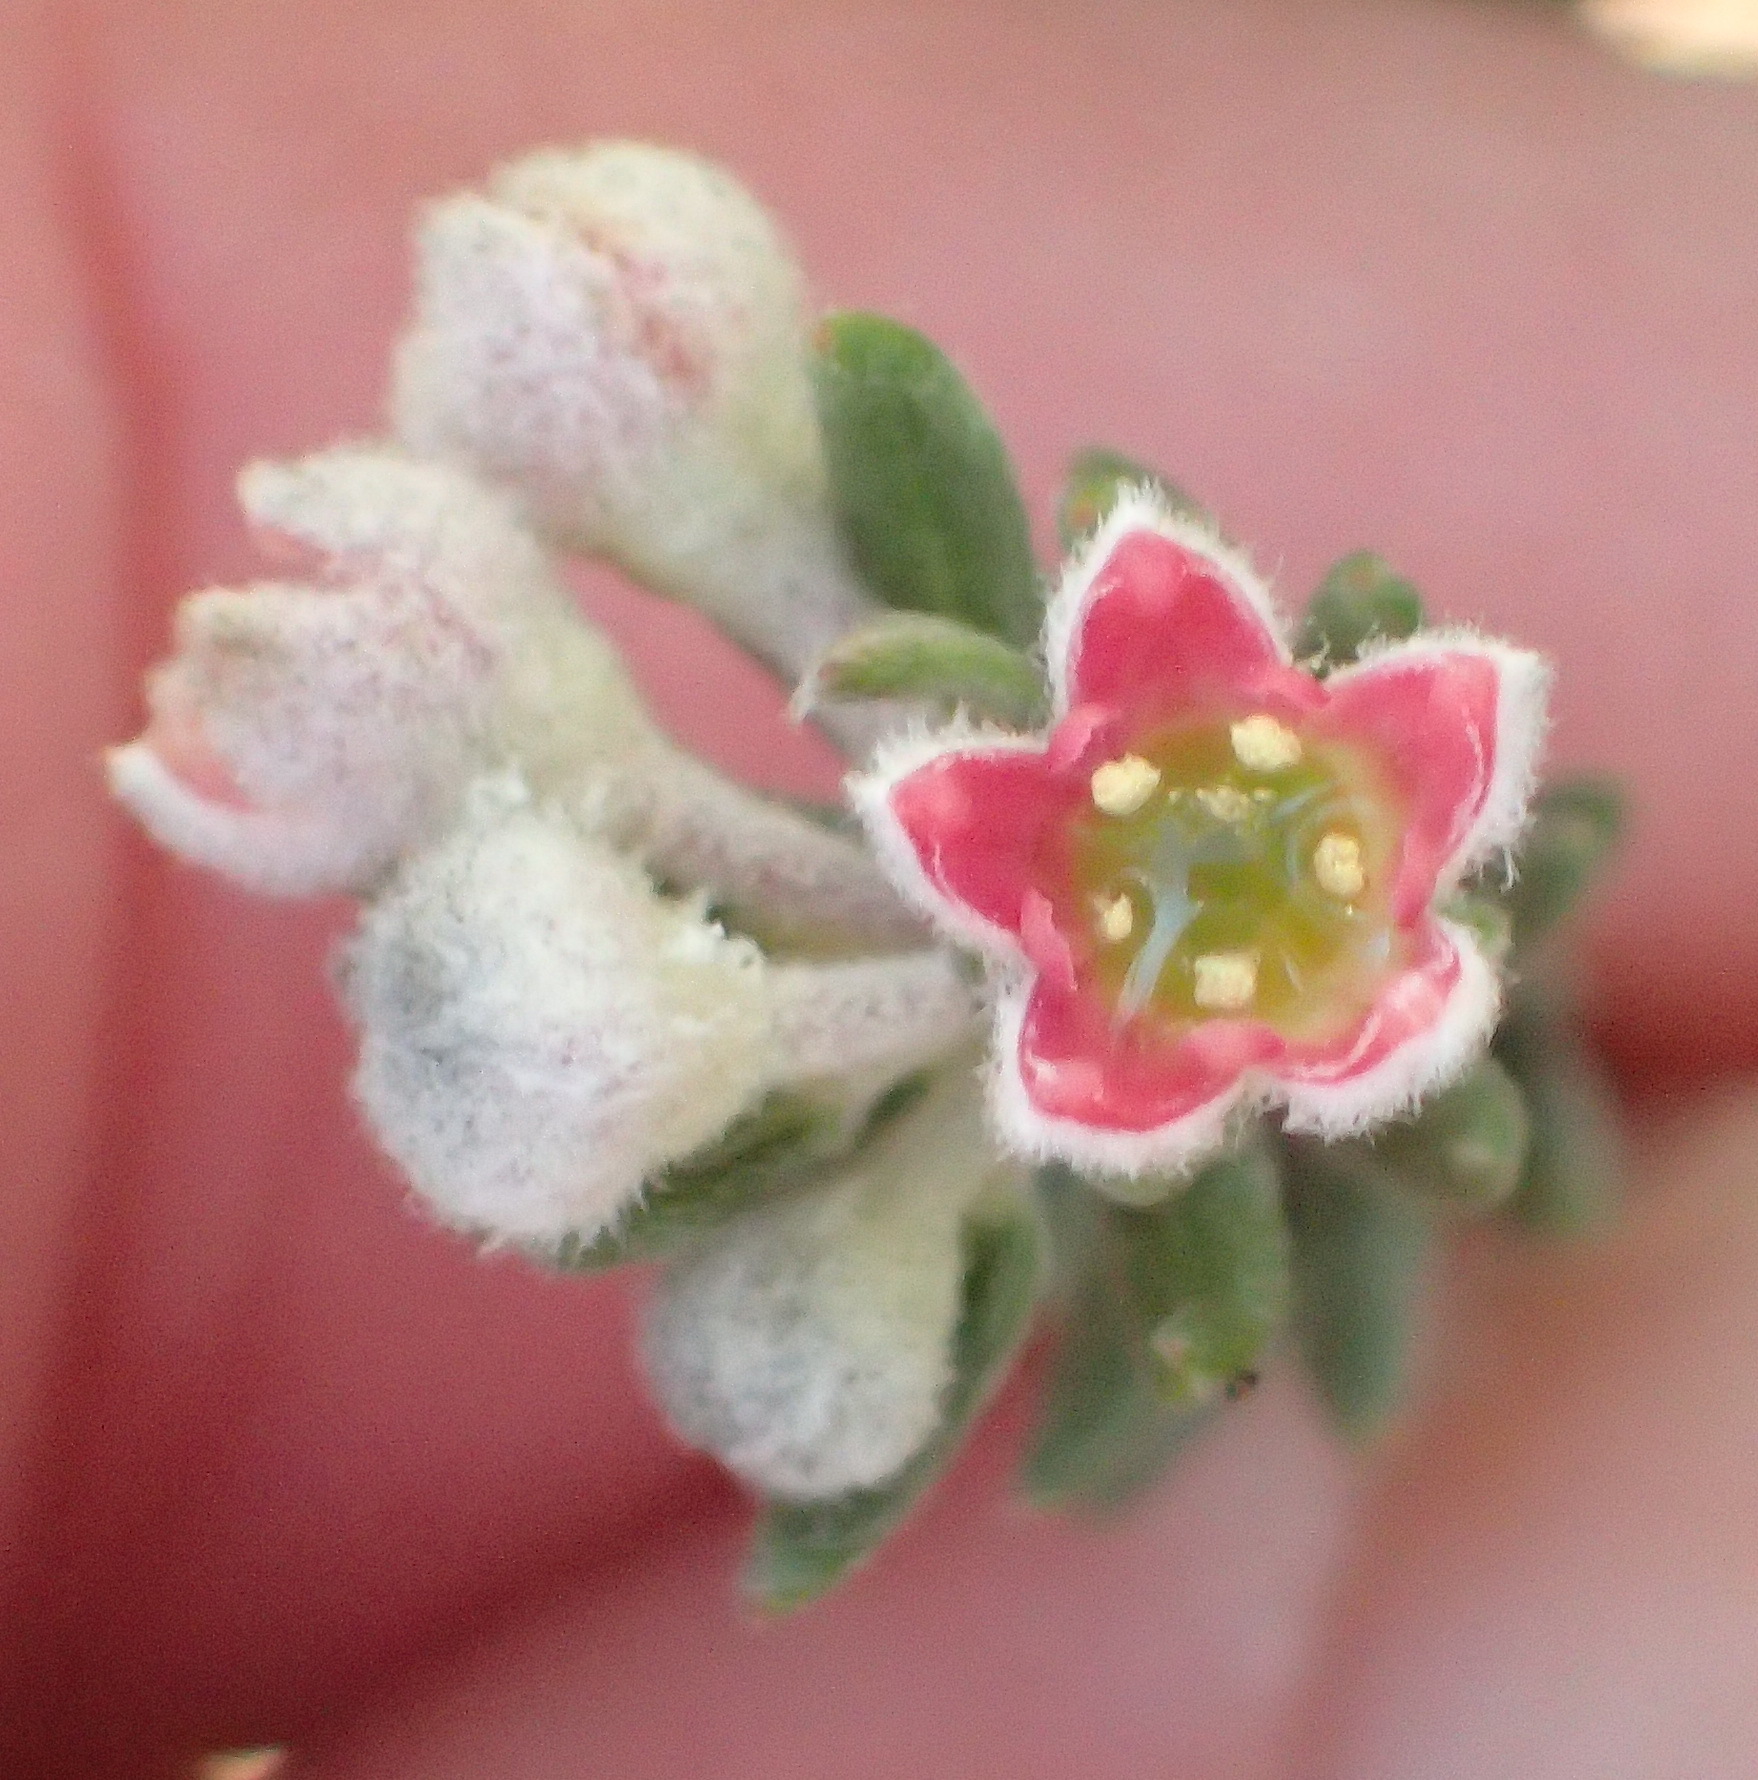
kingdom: Plantae
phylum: Tracheophyta
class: Magnoliopsida
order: Rosales
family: Rhamnaceae
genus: Phylica
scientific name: Phylica purpurea
